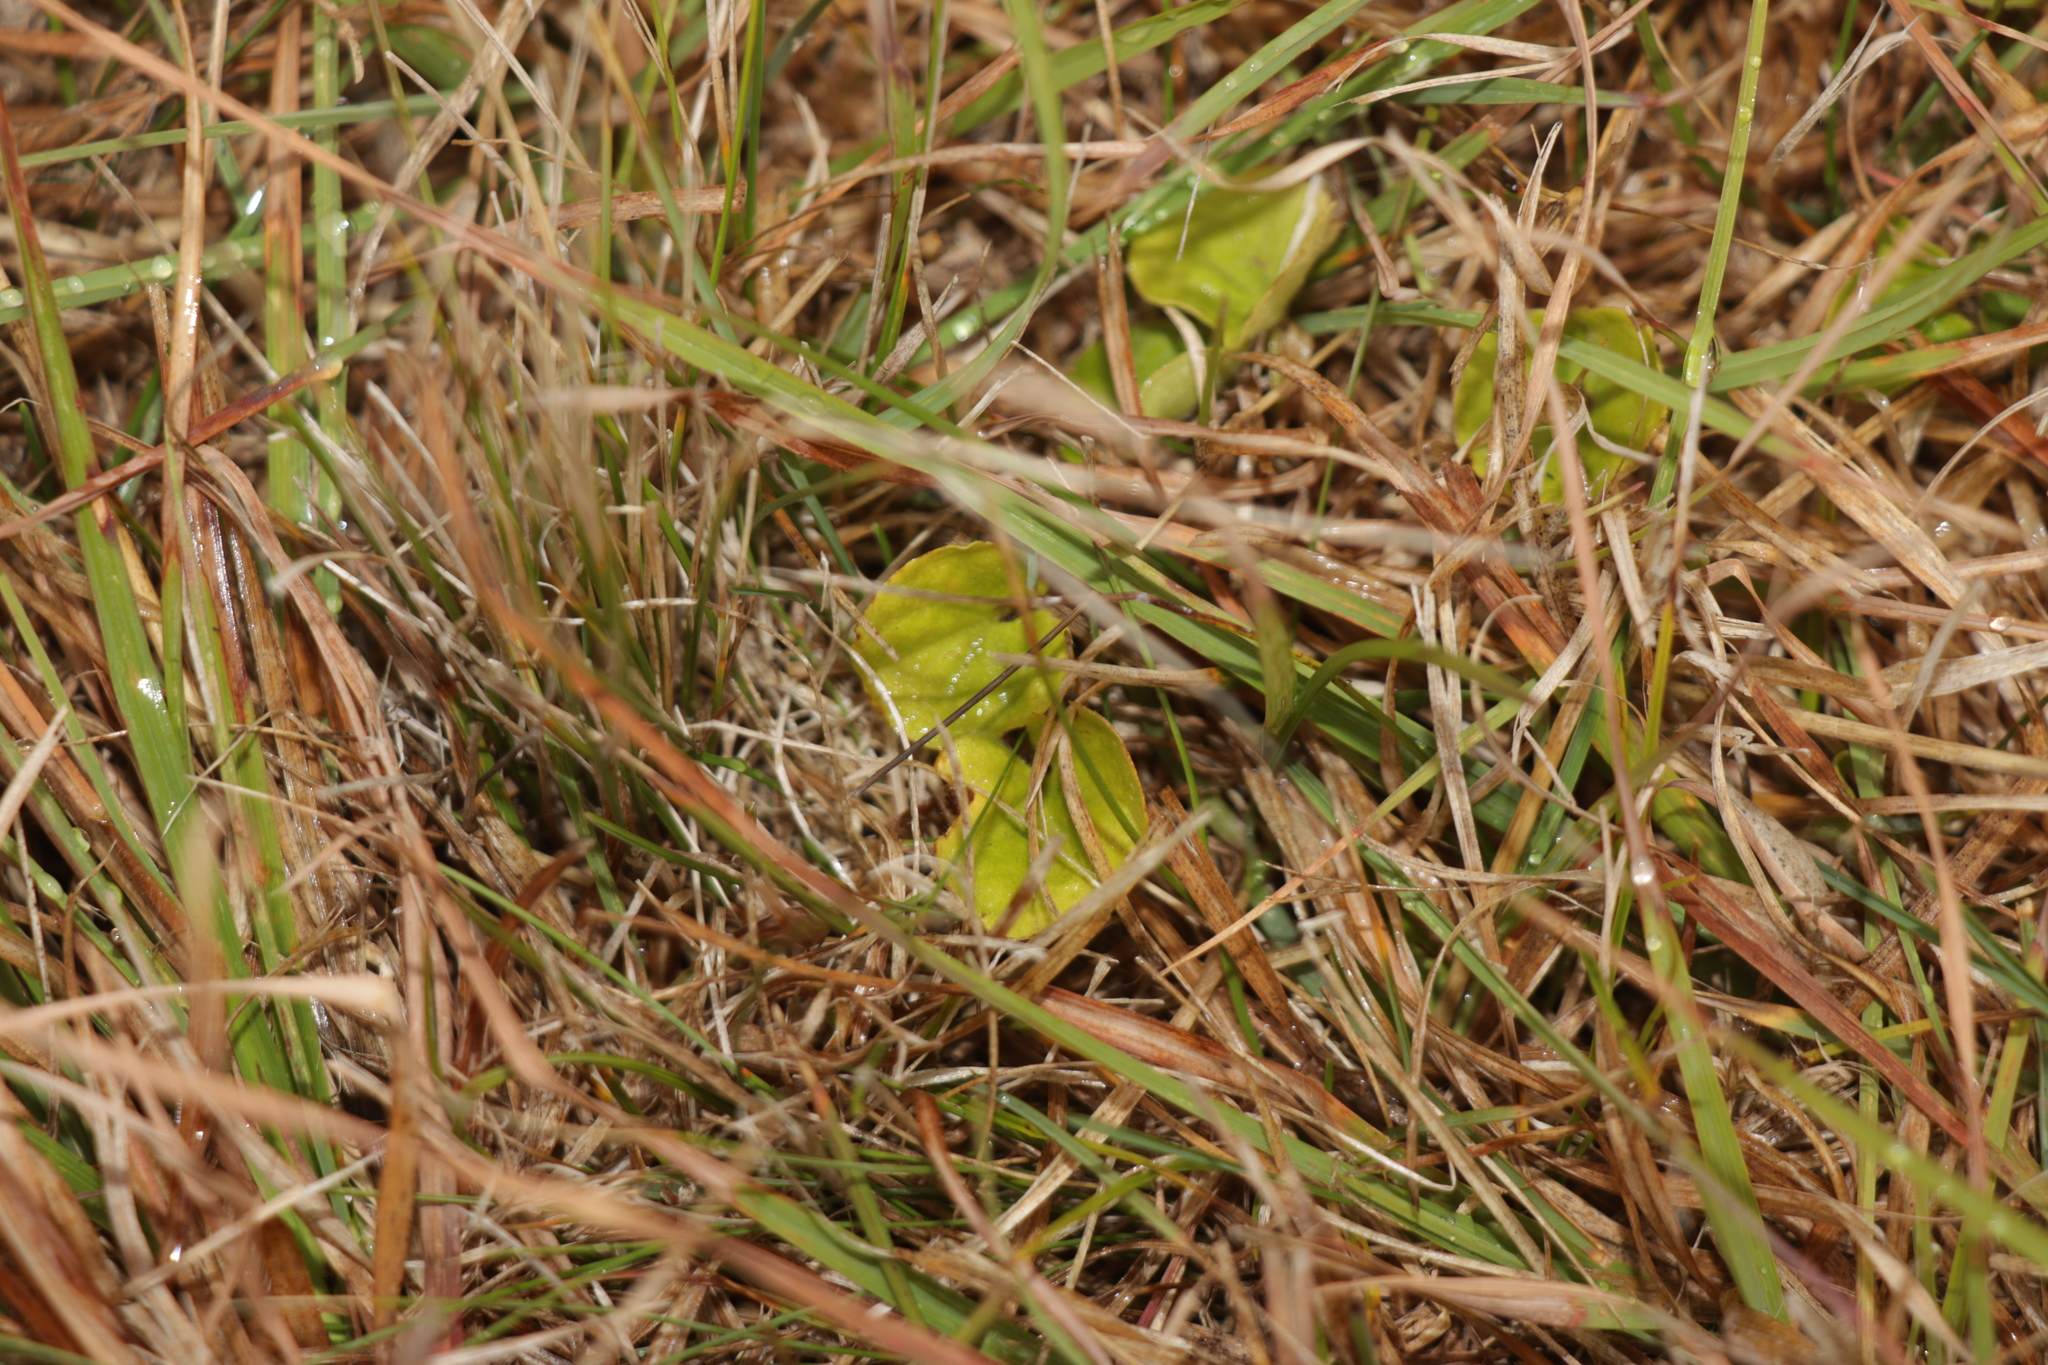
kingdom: Plantae
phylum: Tracheophyta
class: Magnoliopsida
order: Solanales
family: Convolvulaceae
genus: Dichondra
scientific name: Dichondra repens
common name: Kidneyweed
